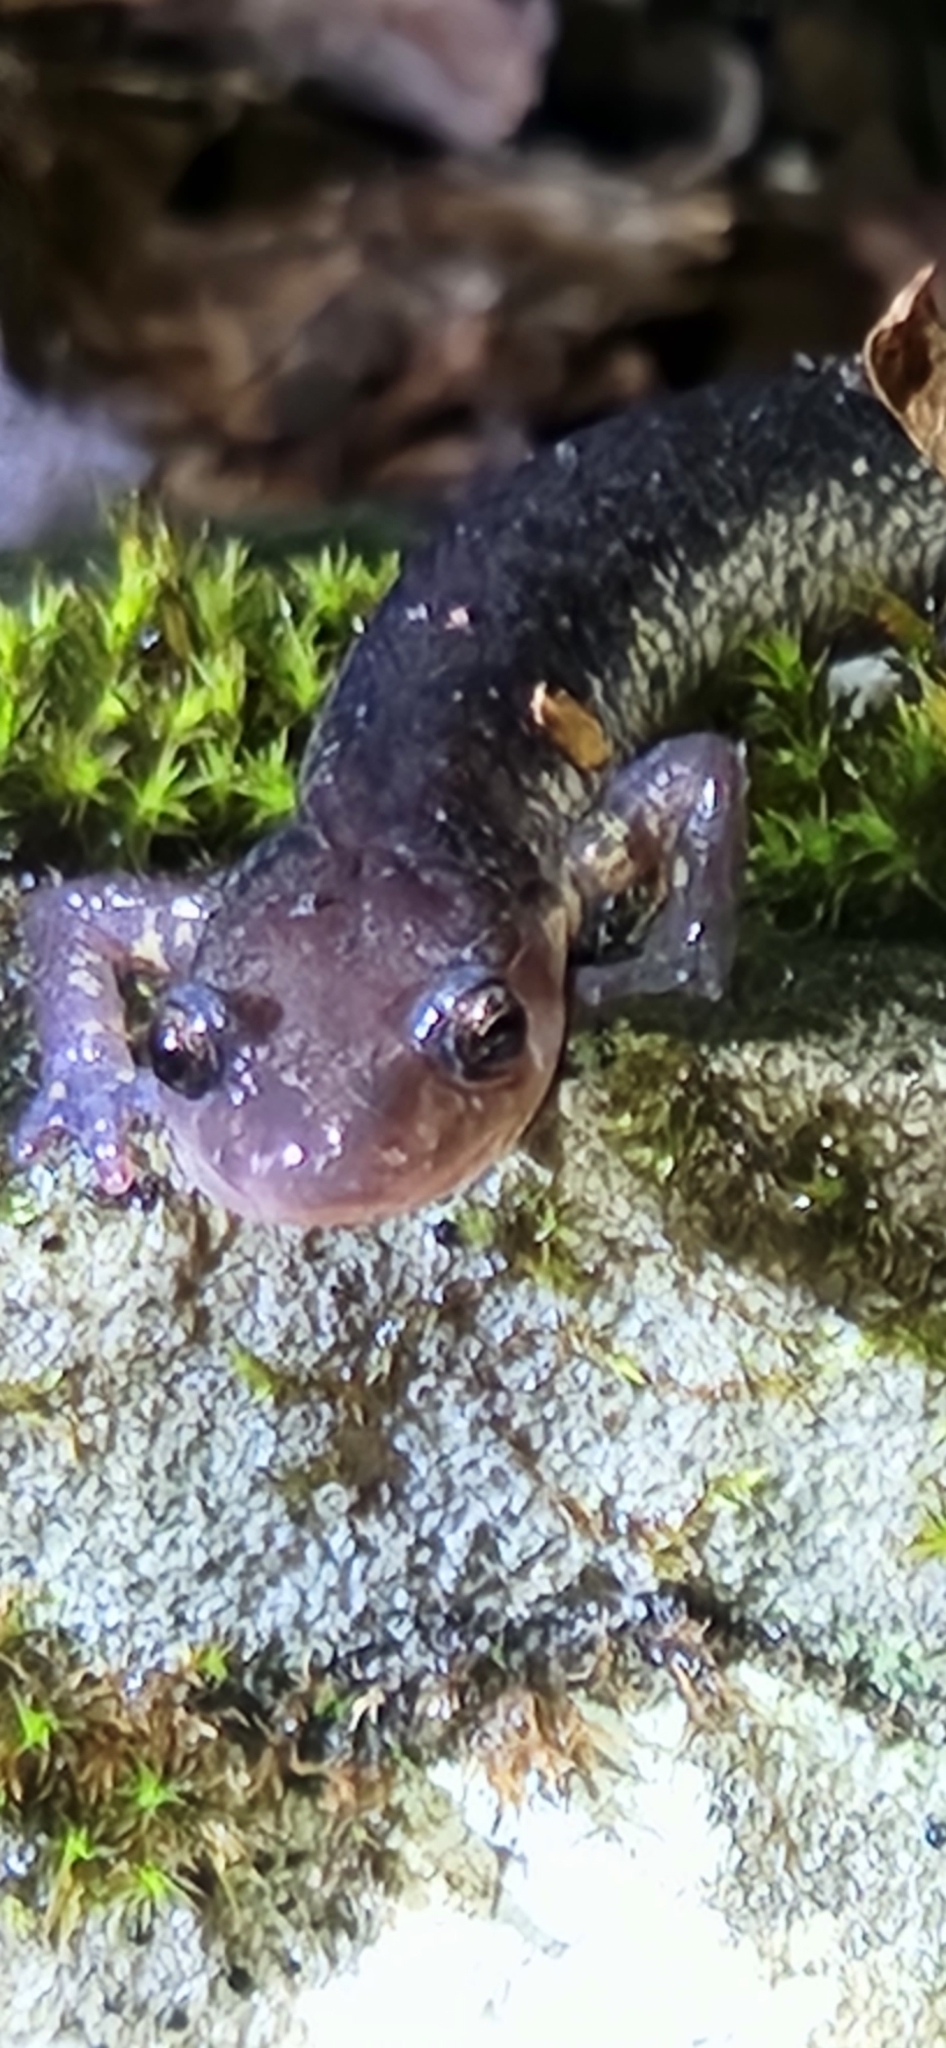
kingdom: Animalia
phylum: Chordata
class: Amphibia
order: Caudata
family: Plethodontidae
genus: Plethodon
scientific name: Plethodon jacksoni
